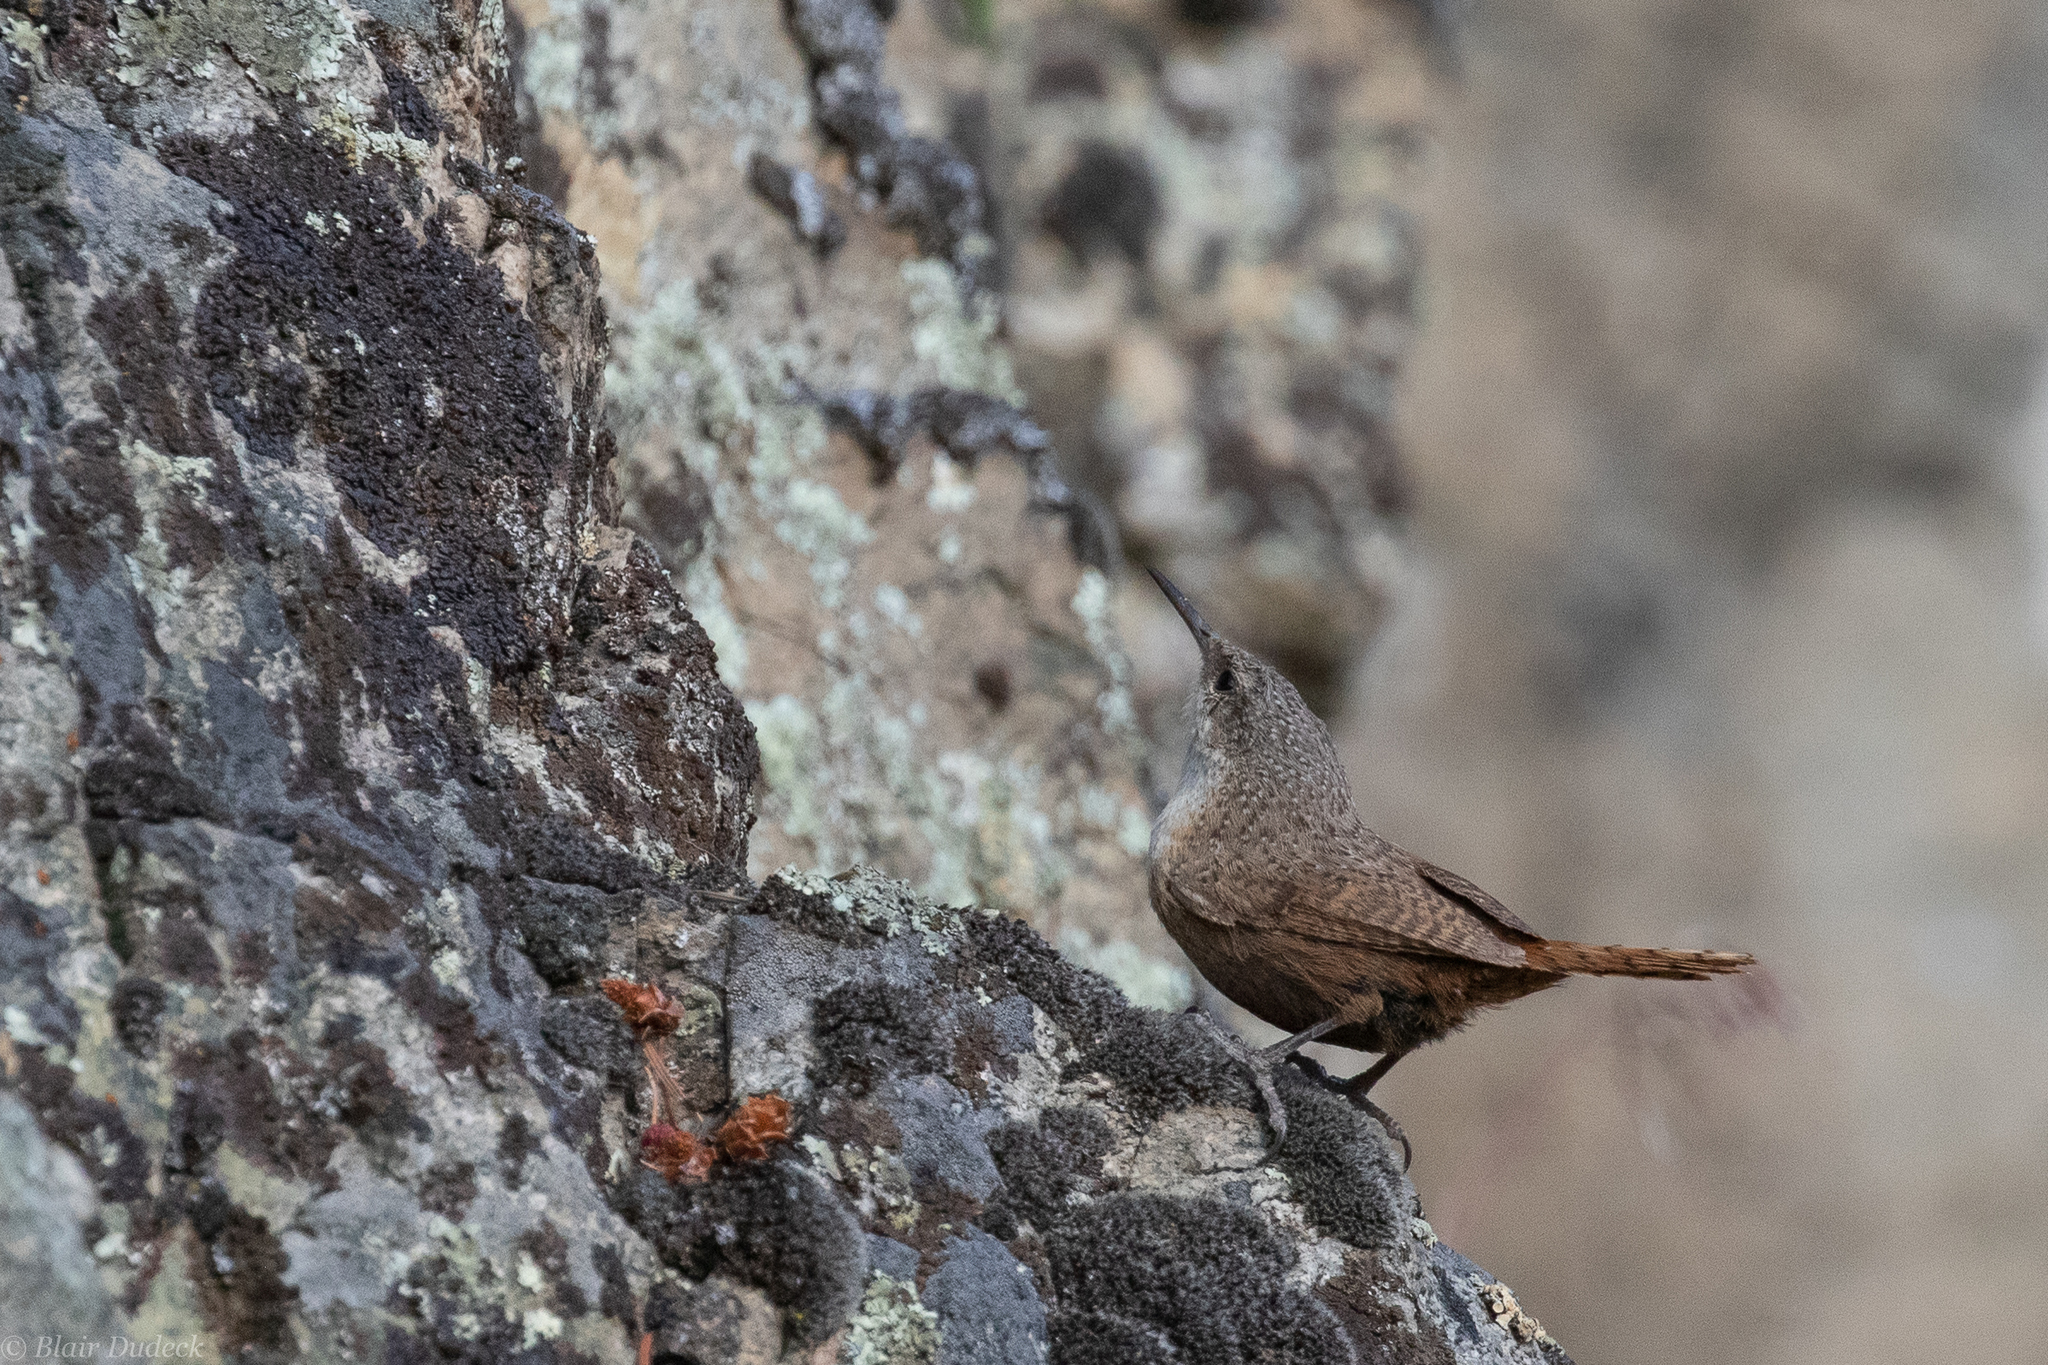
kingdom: Animalia
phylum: Chordata
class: Aves
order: Passeriformes
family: Troglodytidae
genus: Catherpes
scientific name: Catherpes mexicanus
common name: Canyon wren
